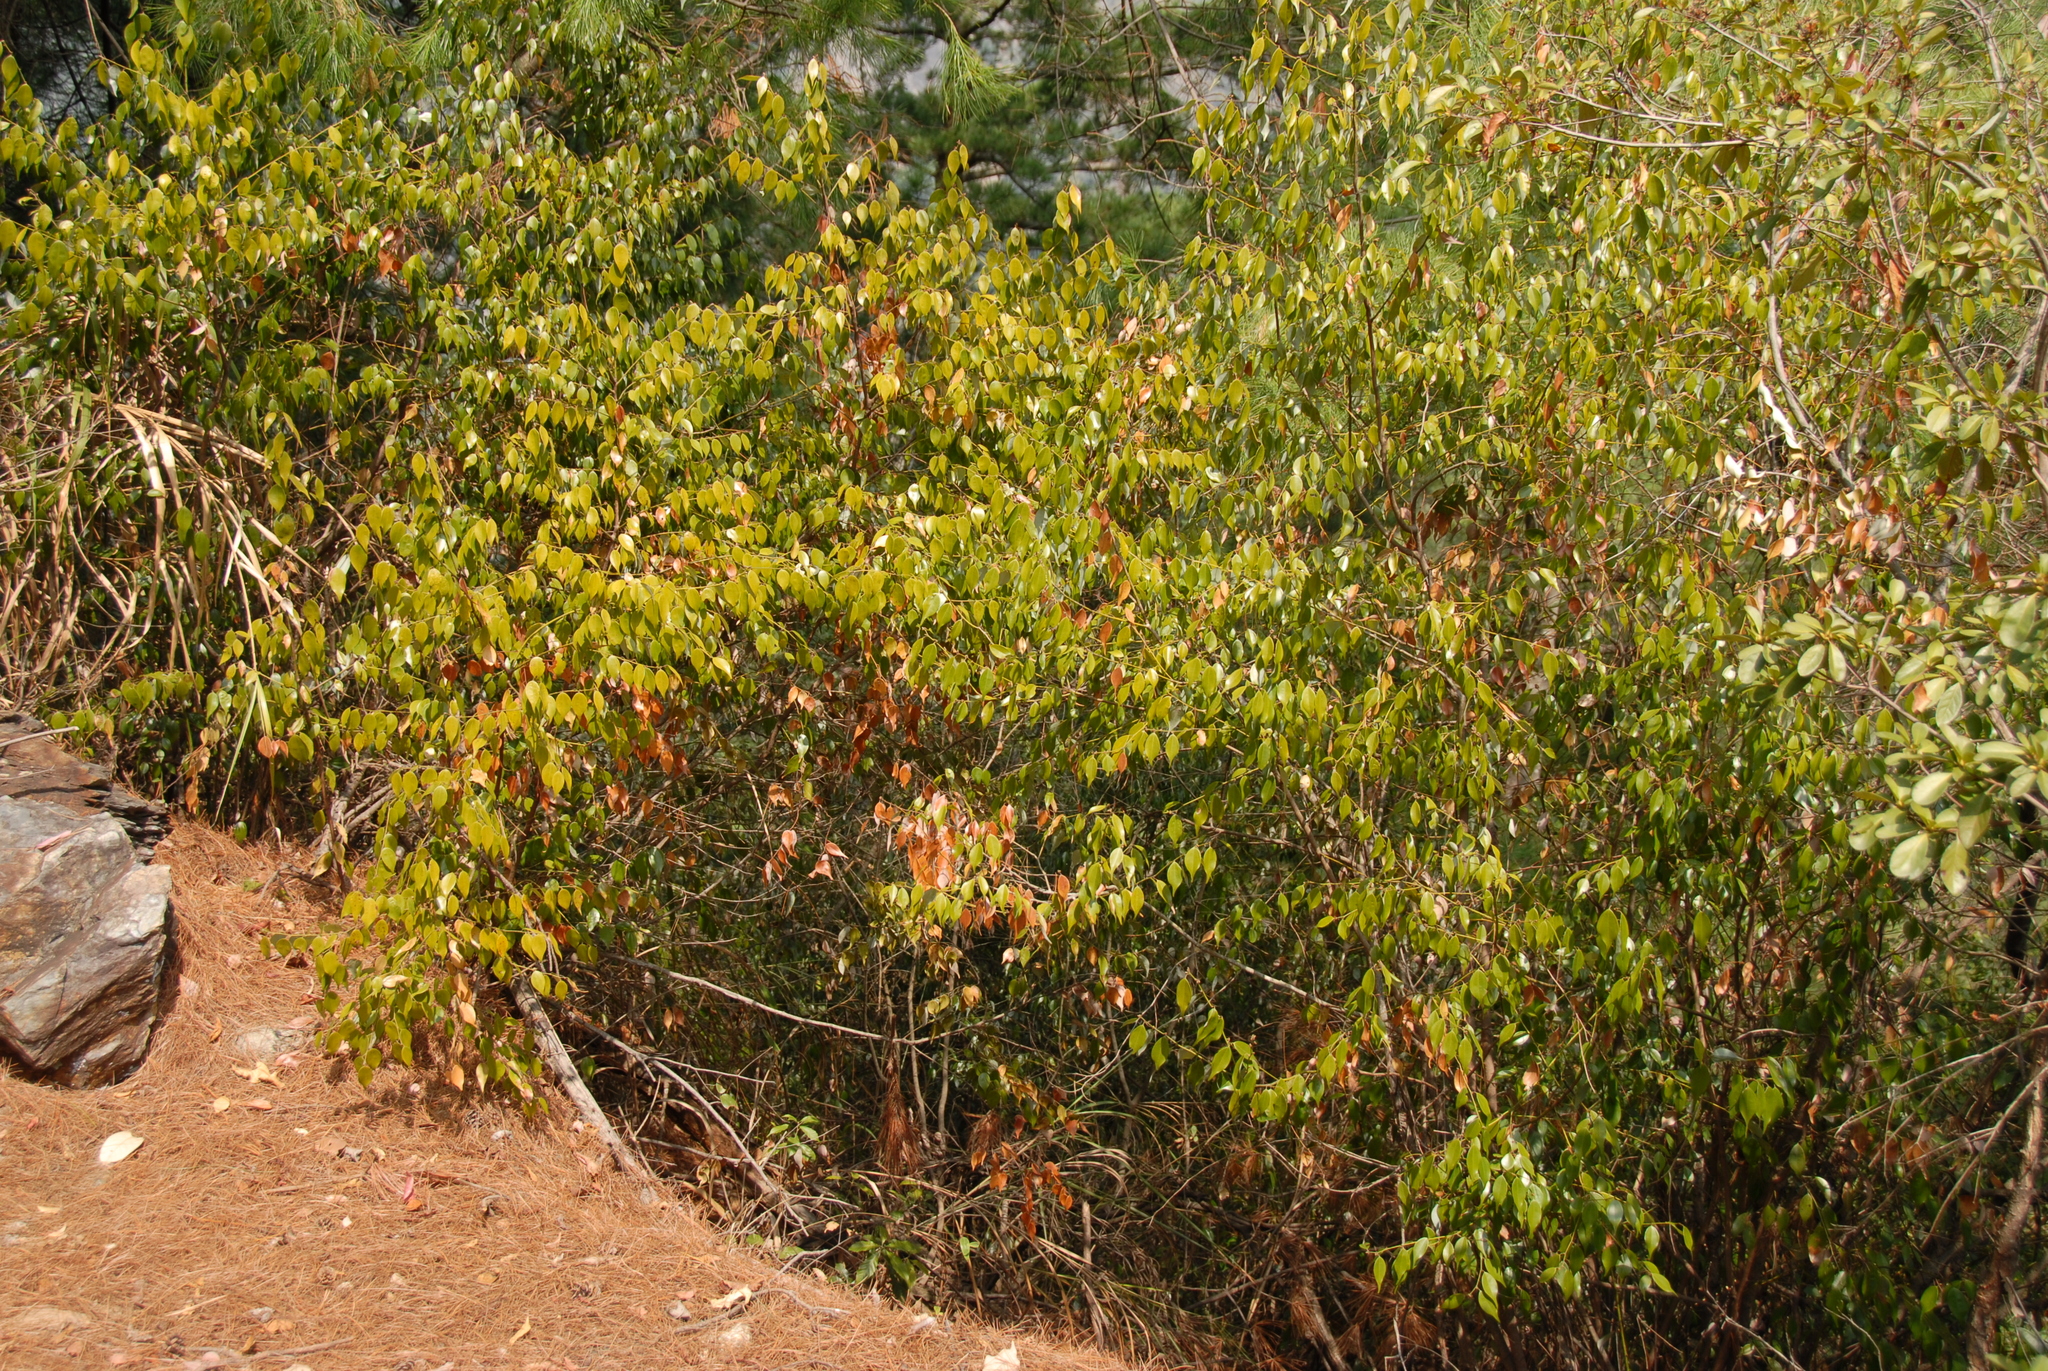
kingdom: Plantae
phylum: Tracheophyta
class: Magnoliopsida
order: Laurales
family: Lauraceae
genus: Lindera
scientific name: Lindera aggregata
